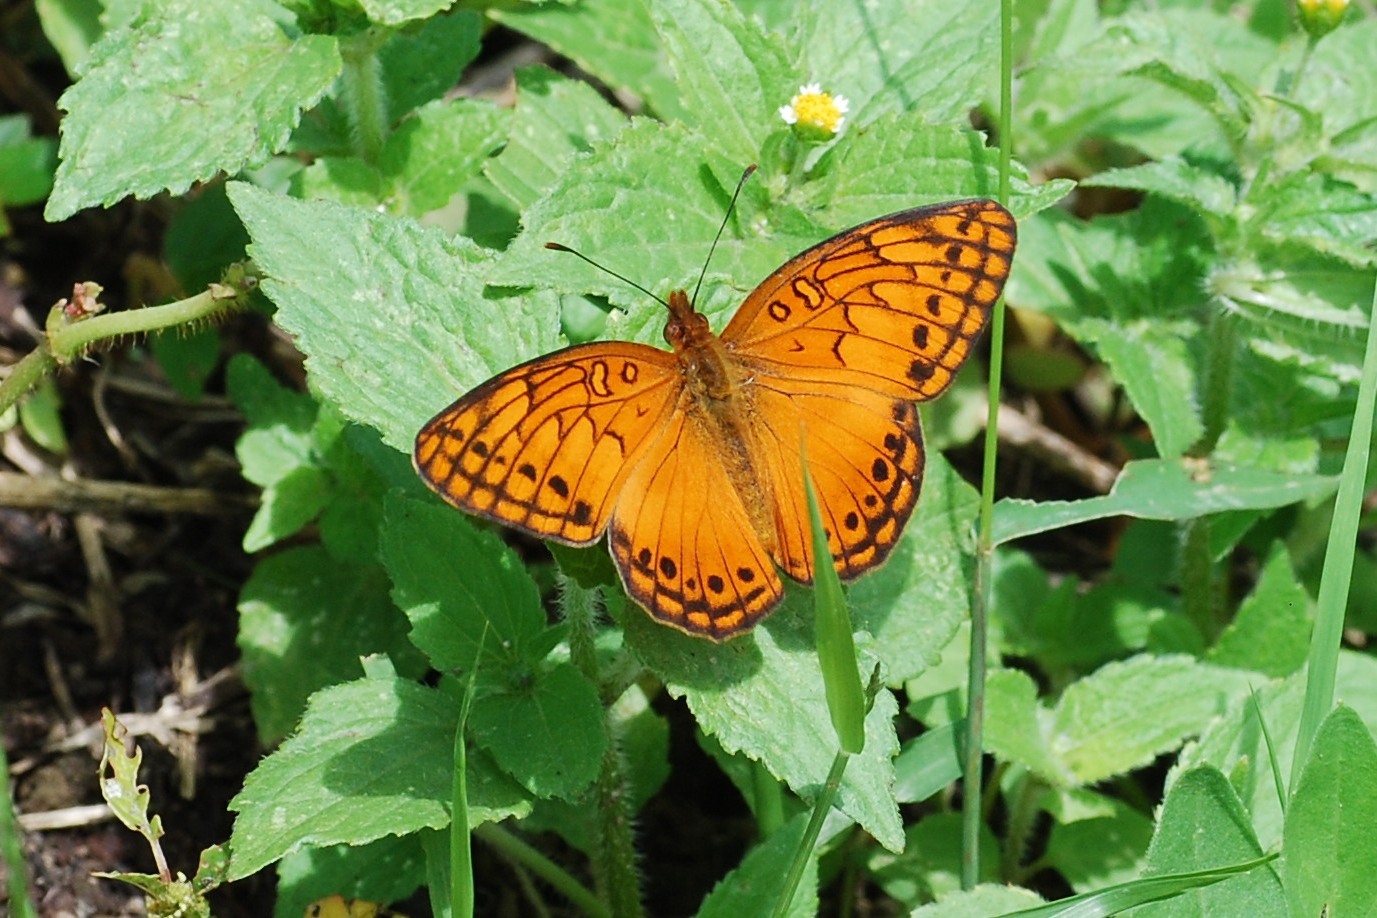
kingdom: Animalia
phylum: Arthropoda
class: Insecta
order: Lepidoptera
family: Nymphalidae
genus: Euptoieta
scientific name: Euptoieta hegesia
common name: Mexican fritillary
